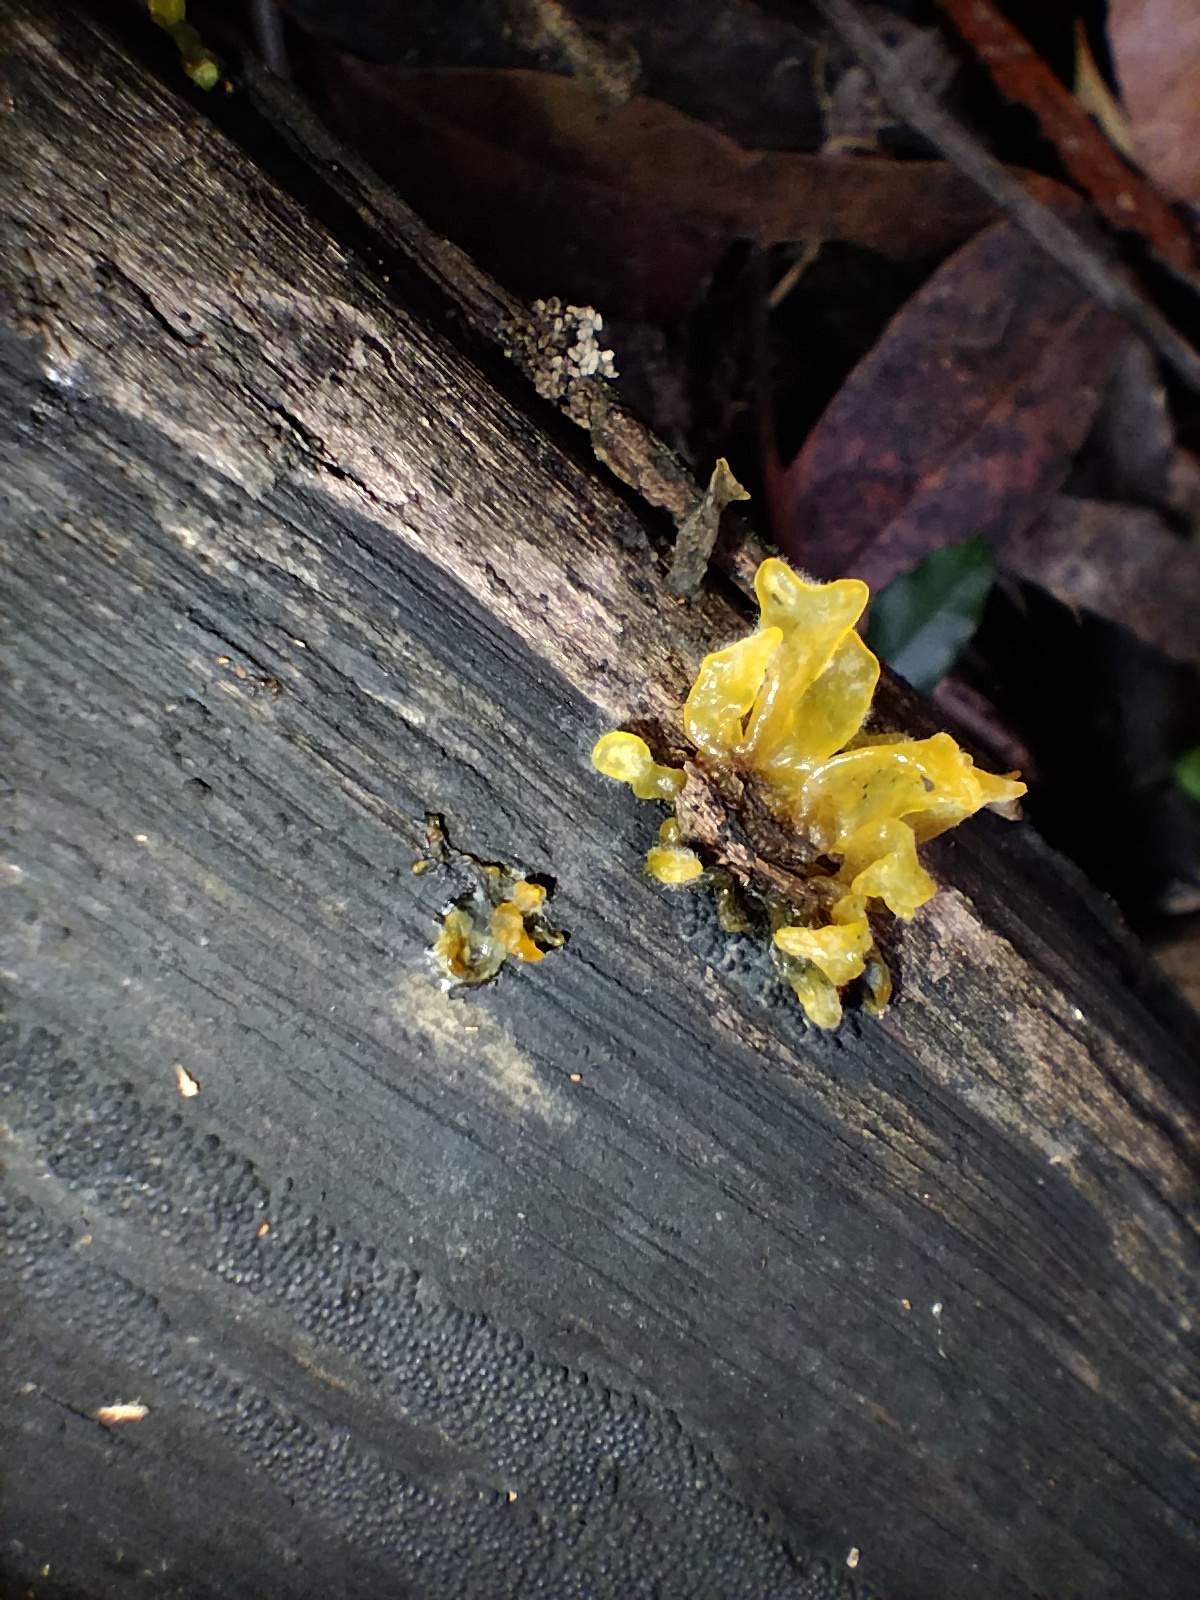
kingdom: Fungi
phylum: Basidiomycota
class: Tremellomycetes
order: Tremellales
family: Tremellaceae
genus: Tremella
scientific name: Tremella fuciformis
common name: Snow fungus
